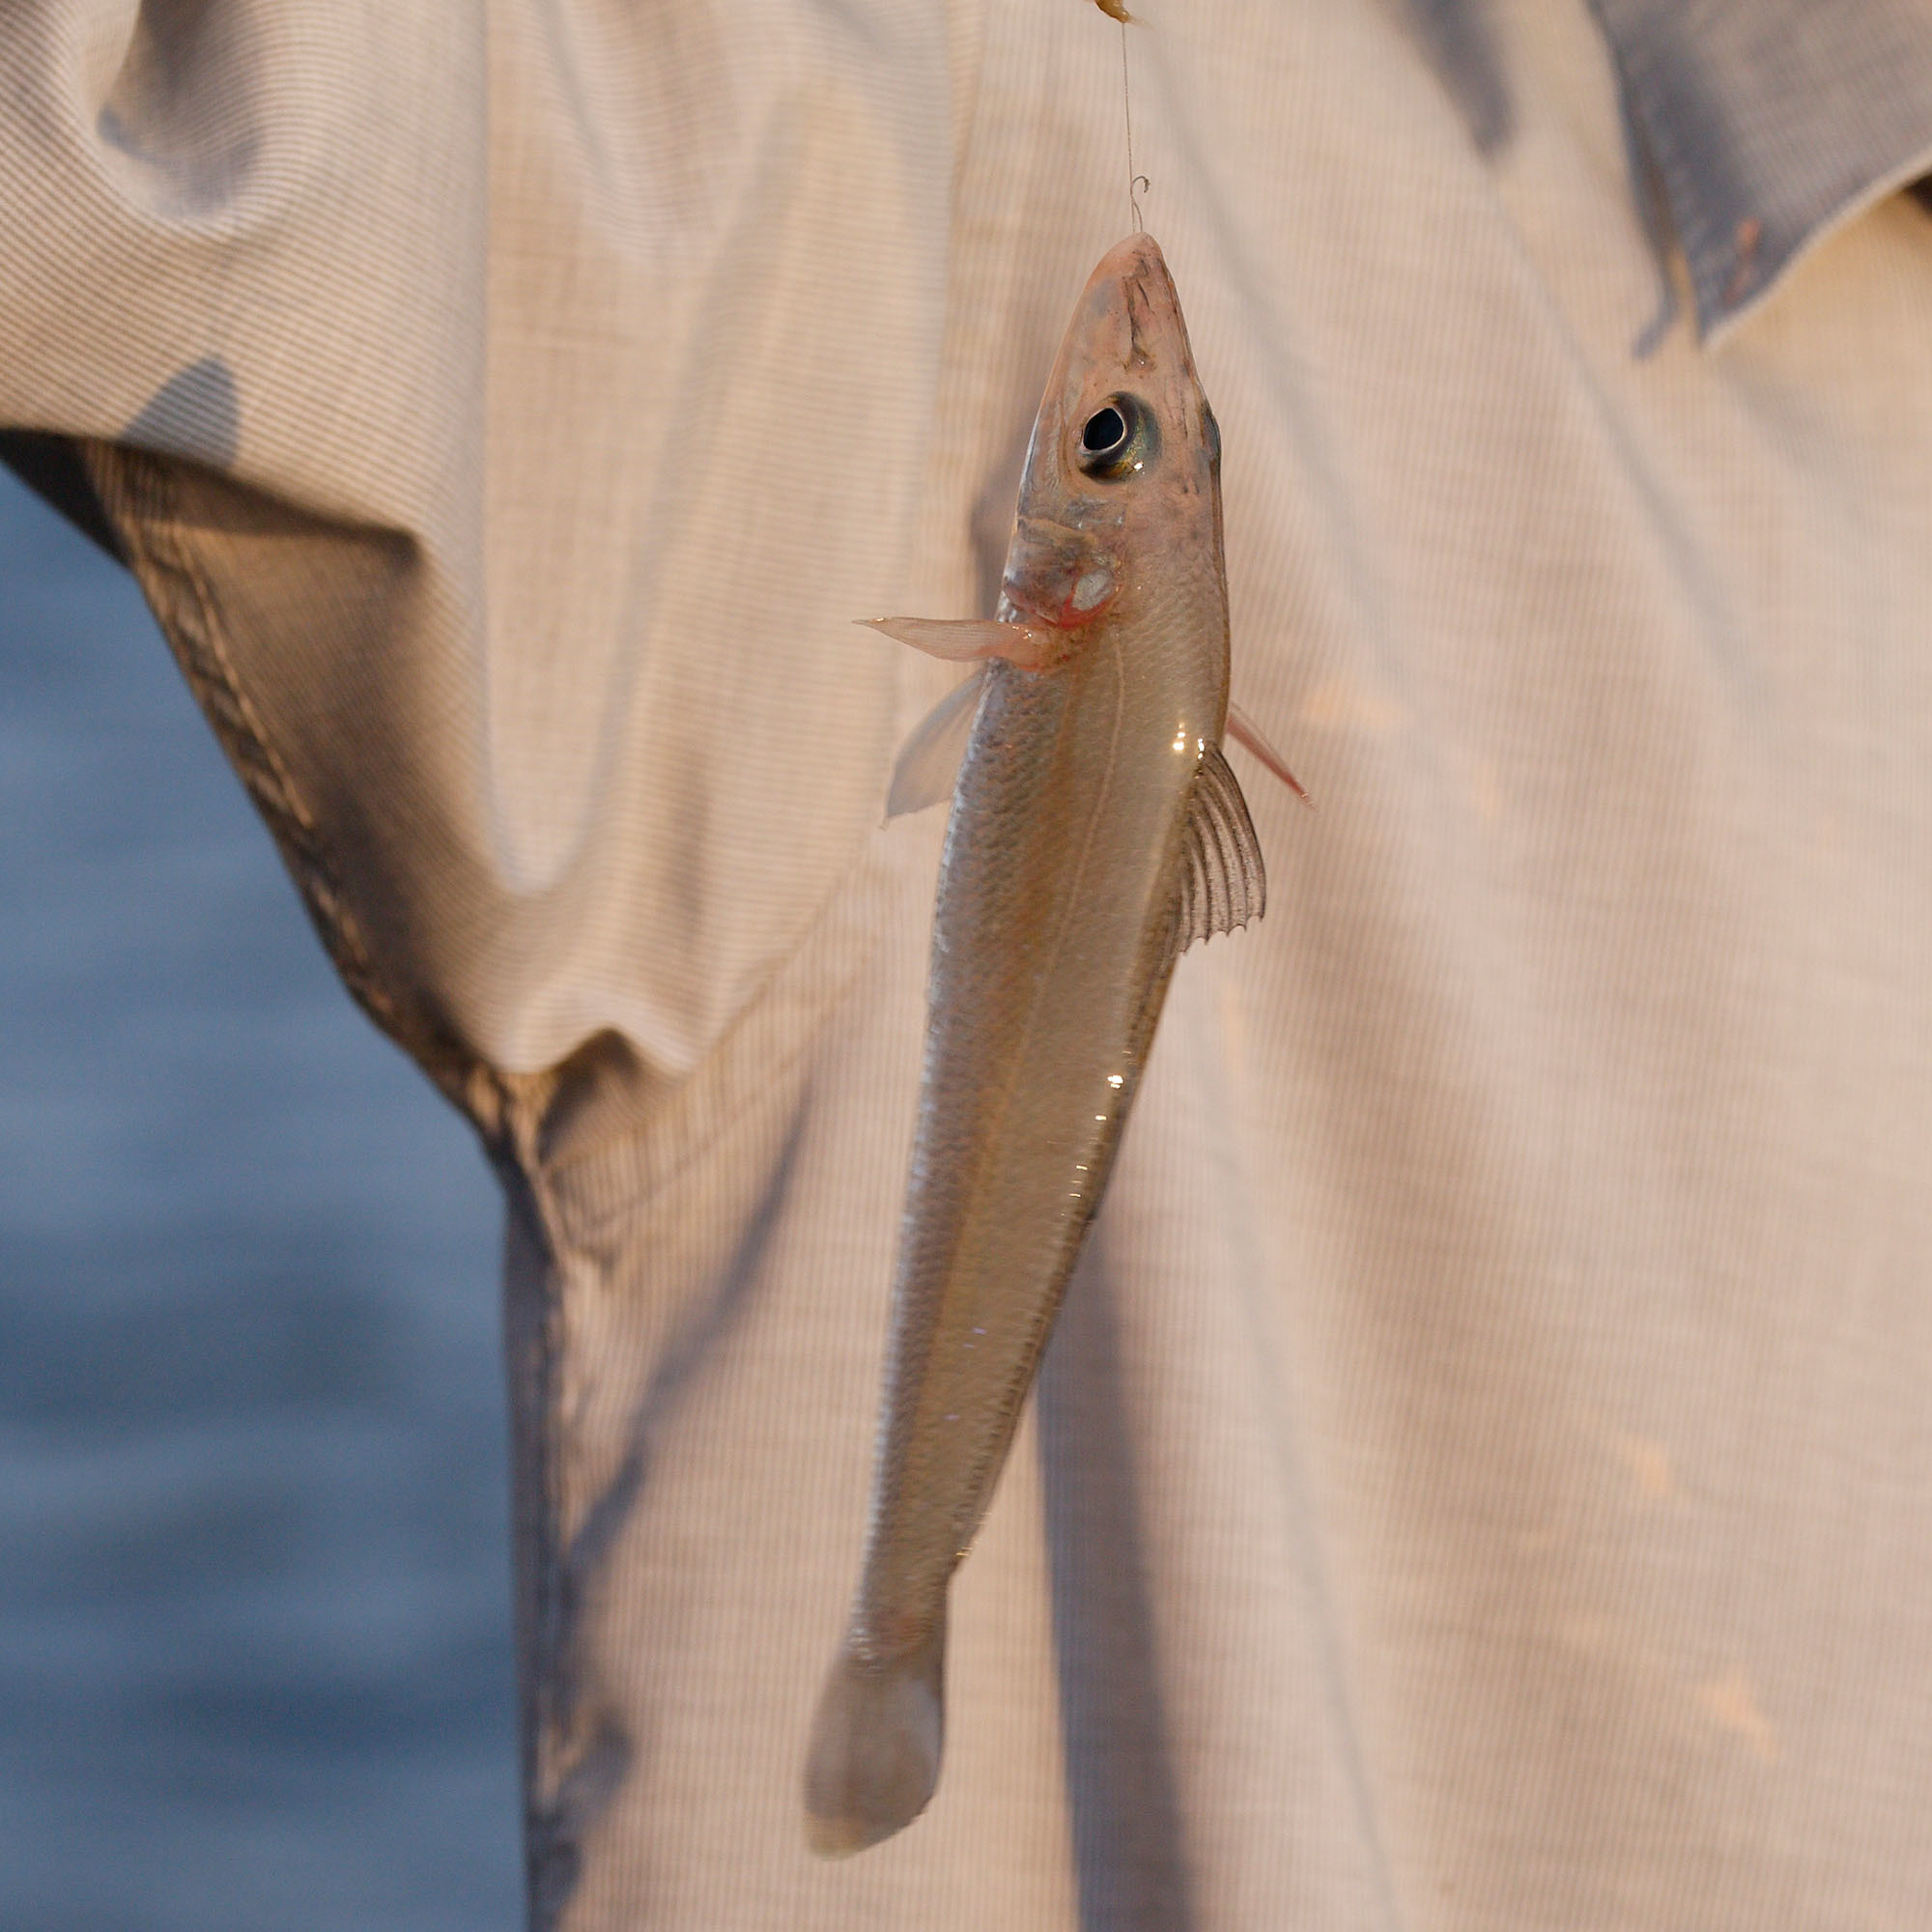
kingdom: Animalia
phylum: Chordata
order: Perciformes
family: Sillaginidae
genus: Sillago
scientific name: Sillago sihama
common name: Silver sillago
